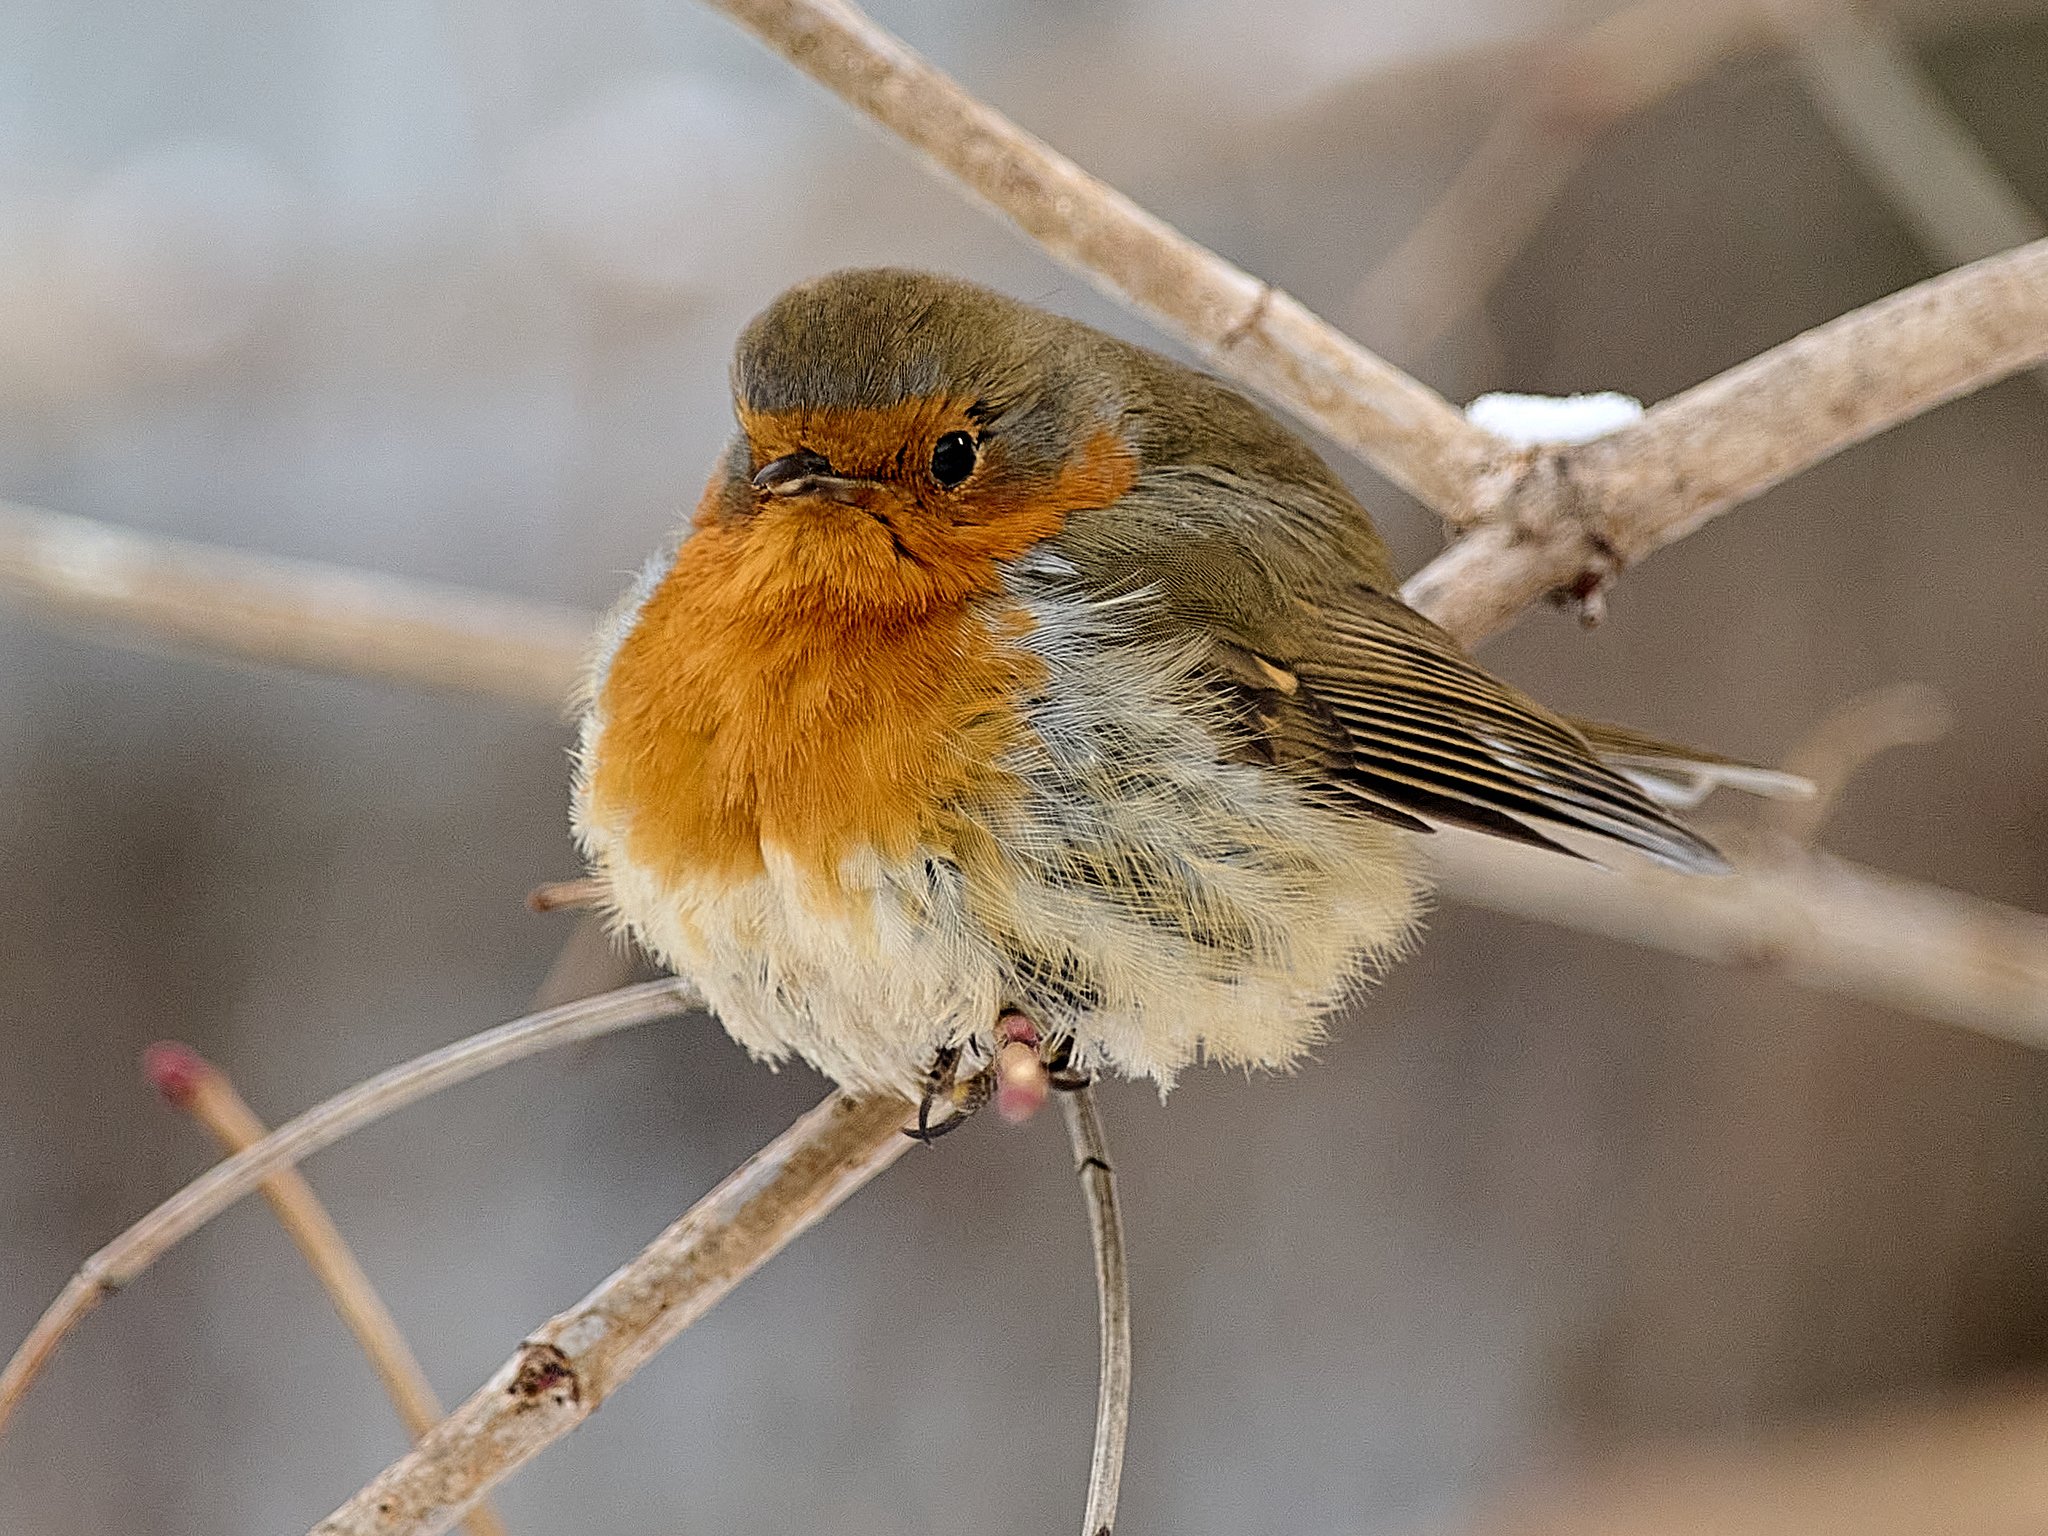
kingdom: Animalia
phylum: Chordata
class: Aves
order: Passeriformes
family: Muscicapidae
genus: Erithacus
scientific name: Erithacus rubecula
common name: European robin
